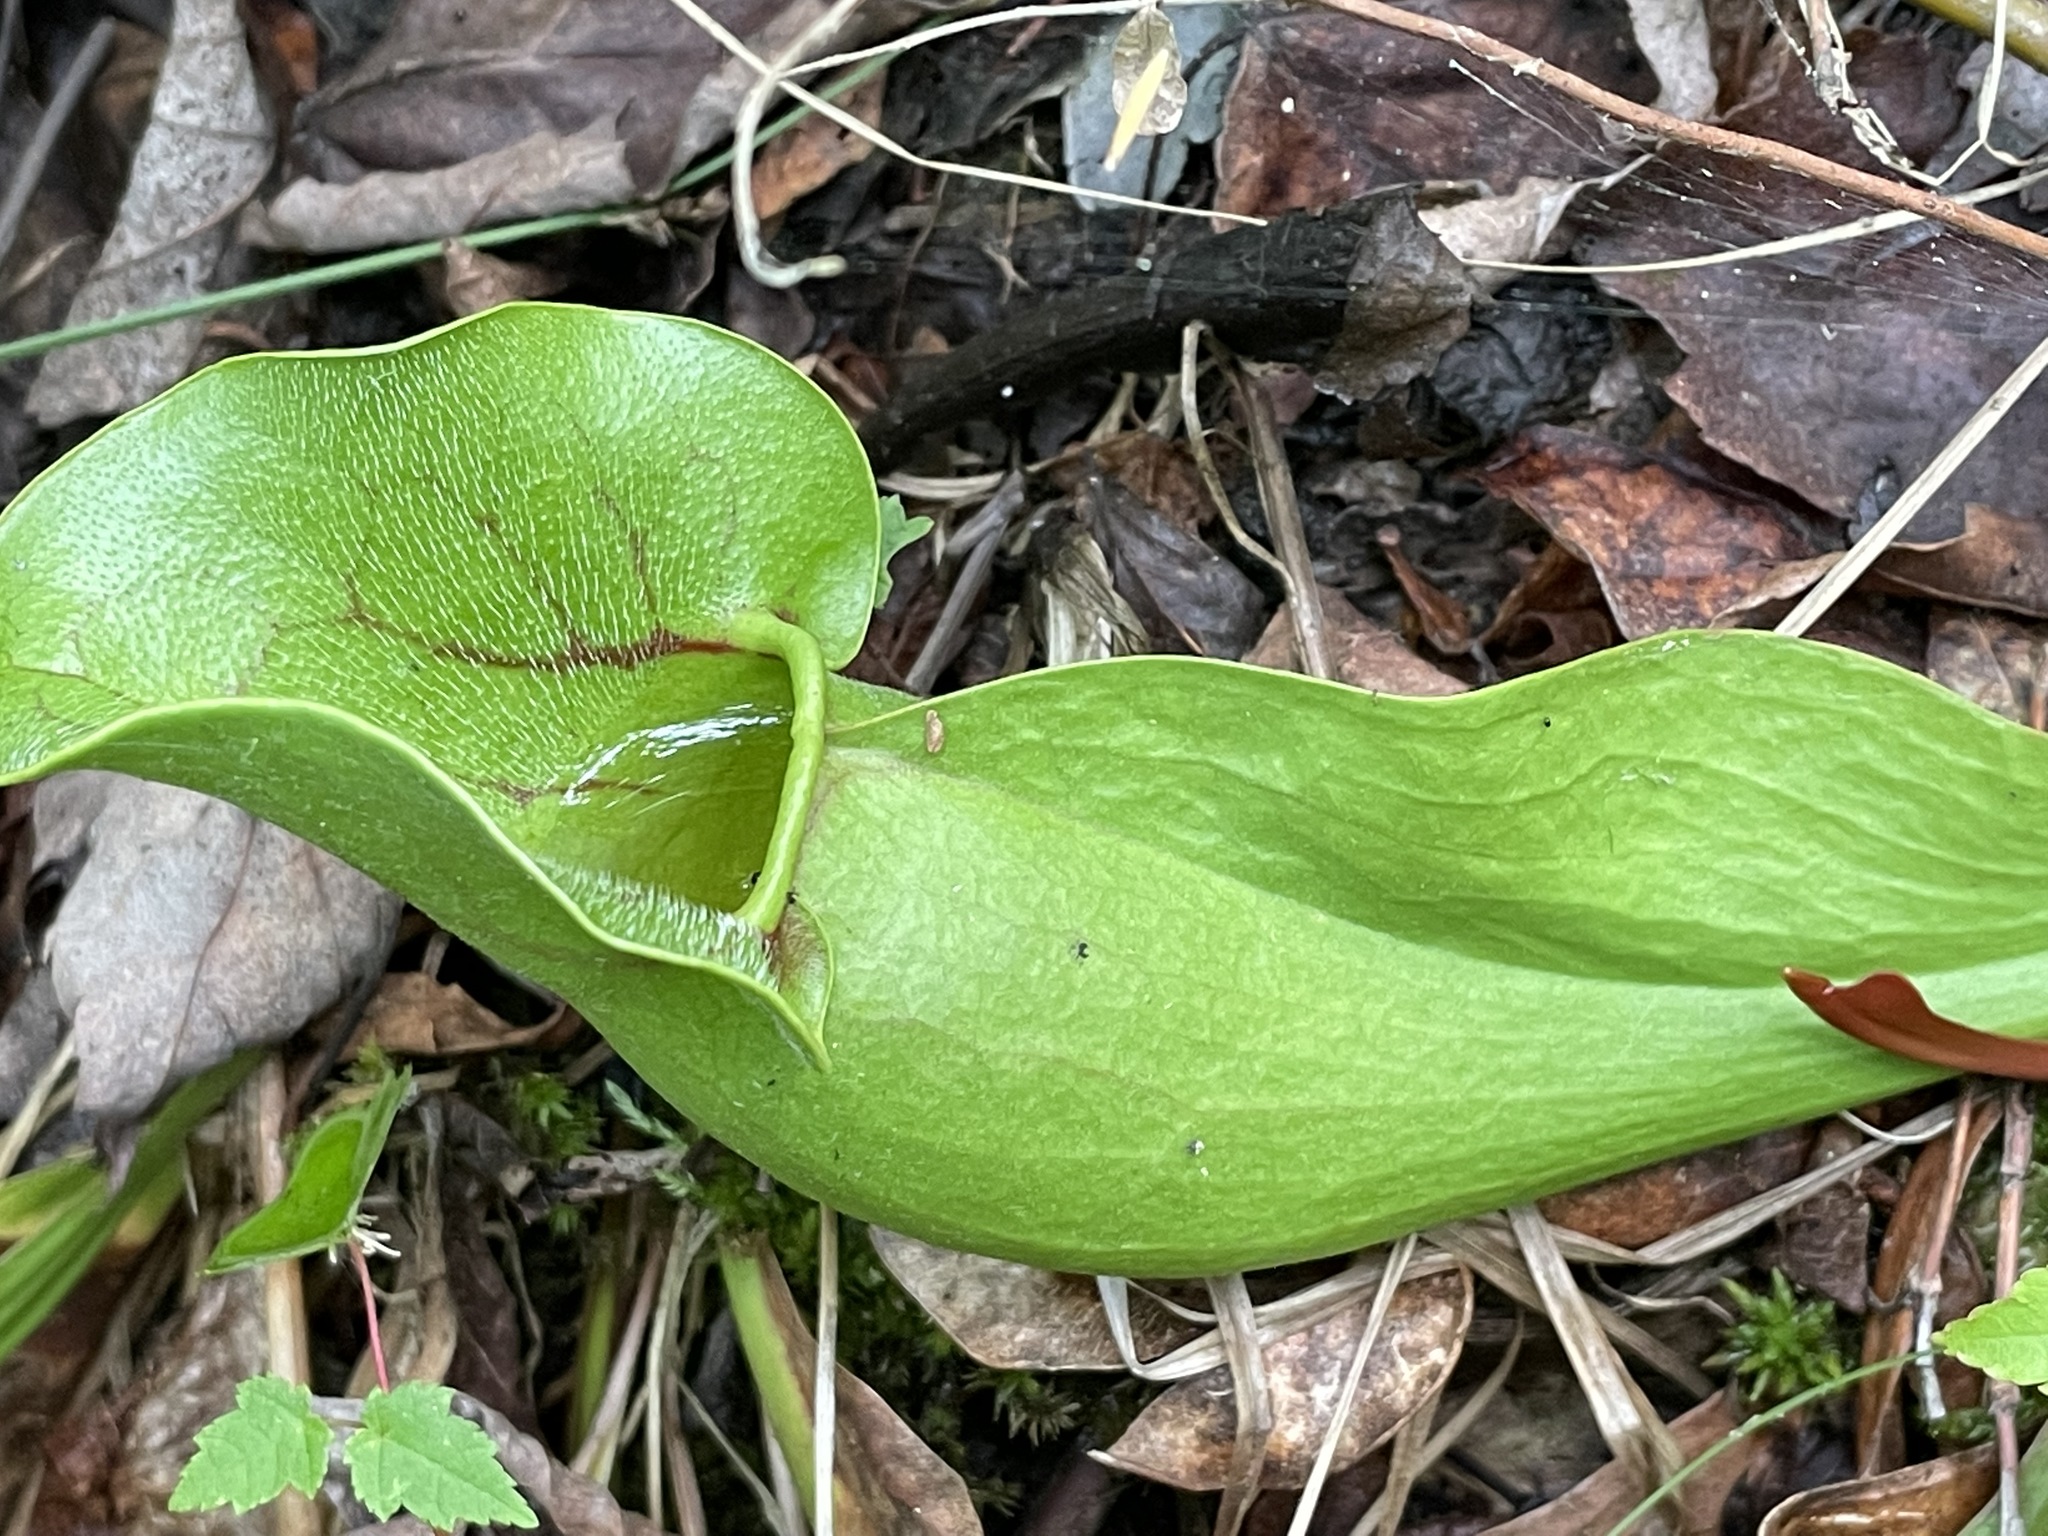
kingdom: Plantae
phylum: Tracheophyta
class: Magnoliopsida
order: Ericales
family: Sarraceniaceae
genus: Sarracenia
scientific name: Sarracenia purpurea
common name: Pitcherplant
